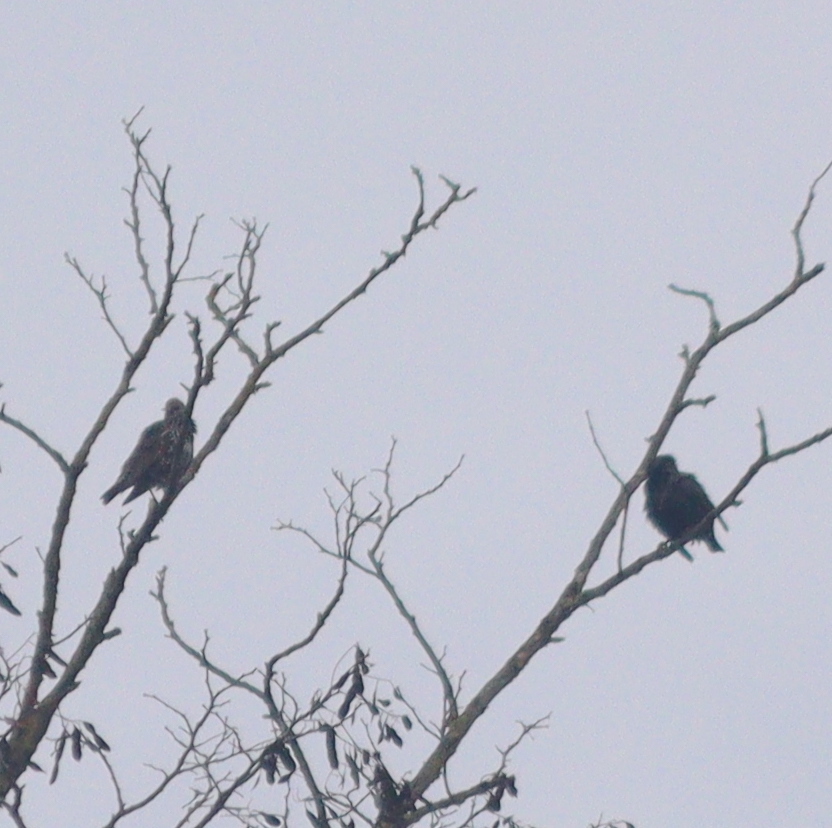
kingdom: Animalia
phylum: Chordata
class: Aves
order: Passeriformes
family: Sturnidae
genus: Sturnus
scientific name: Sturnus vulgaris
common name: Common starling
